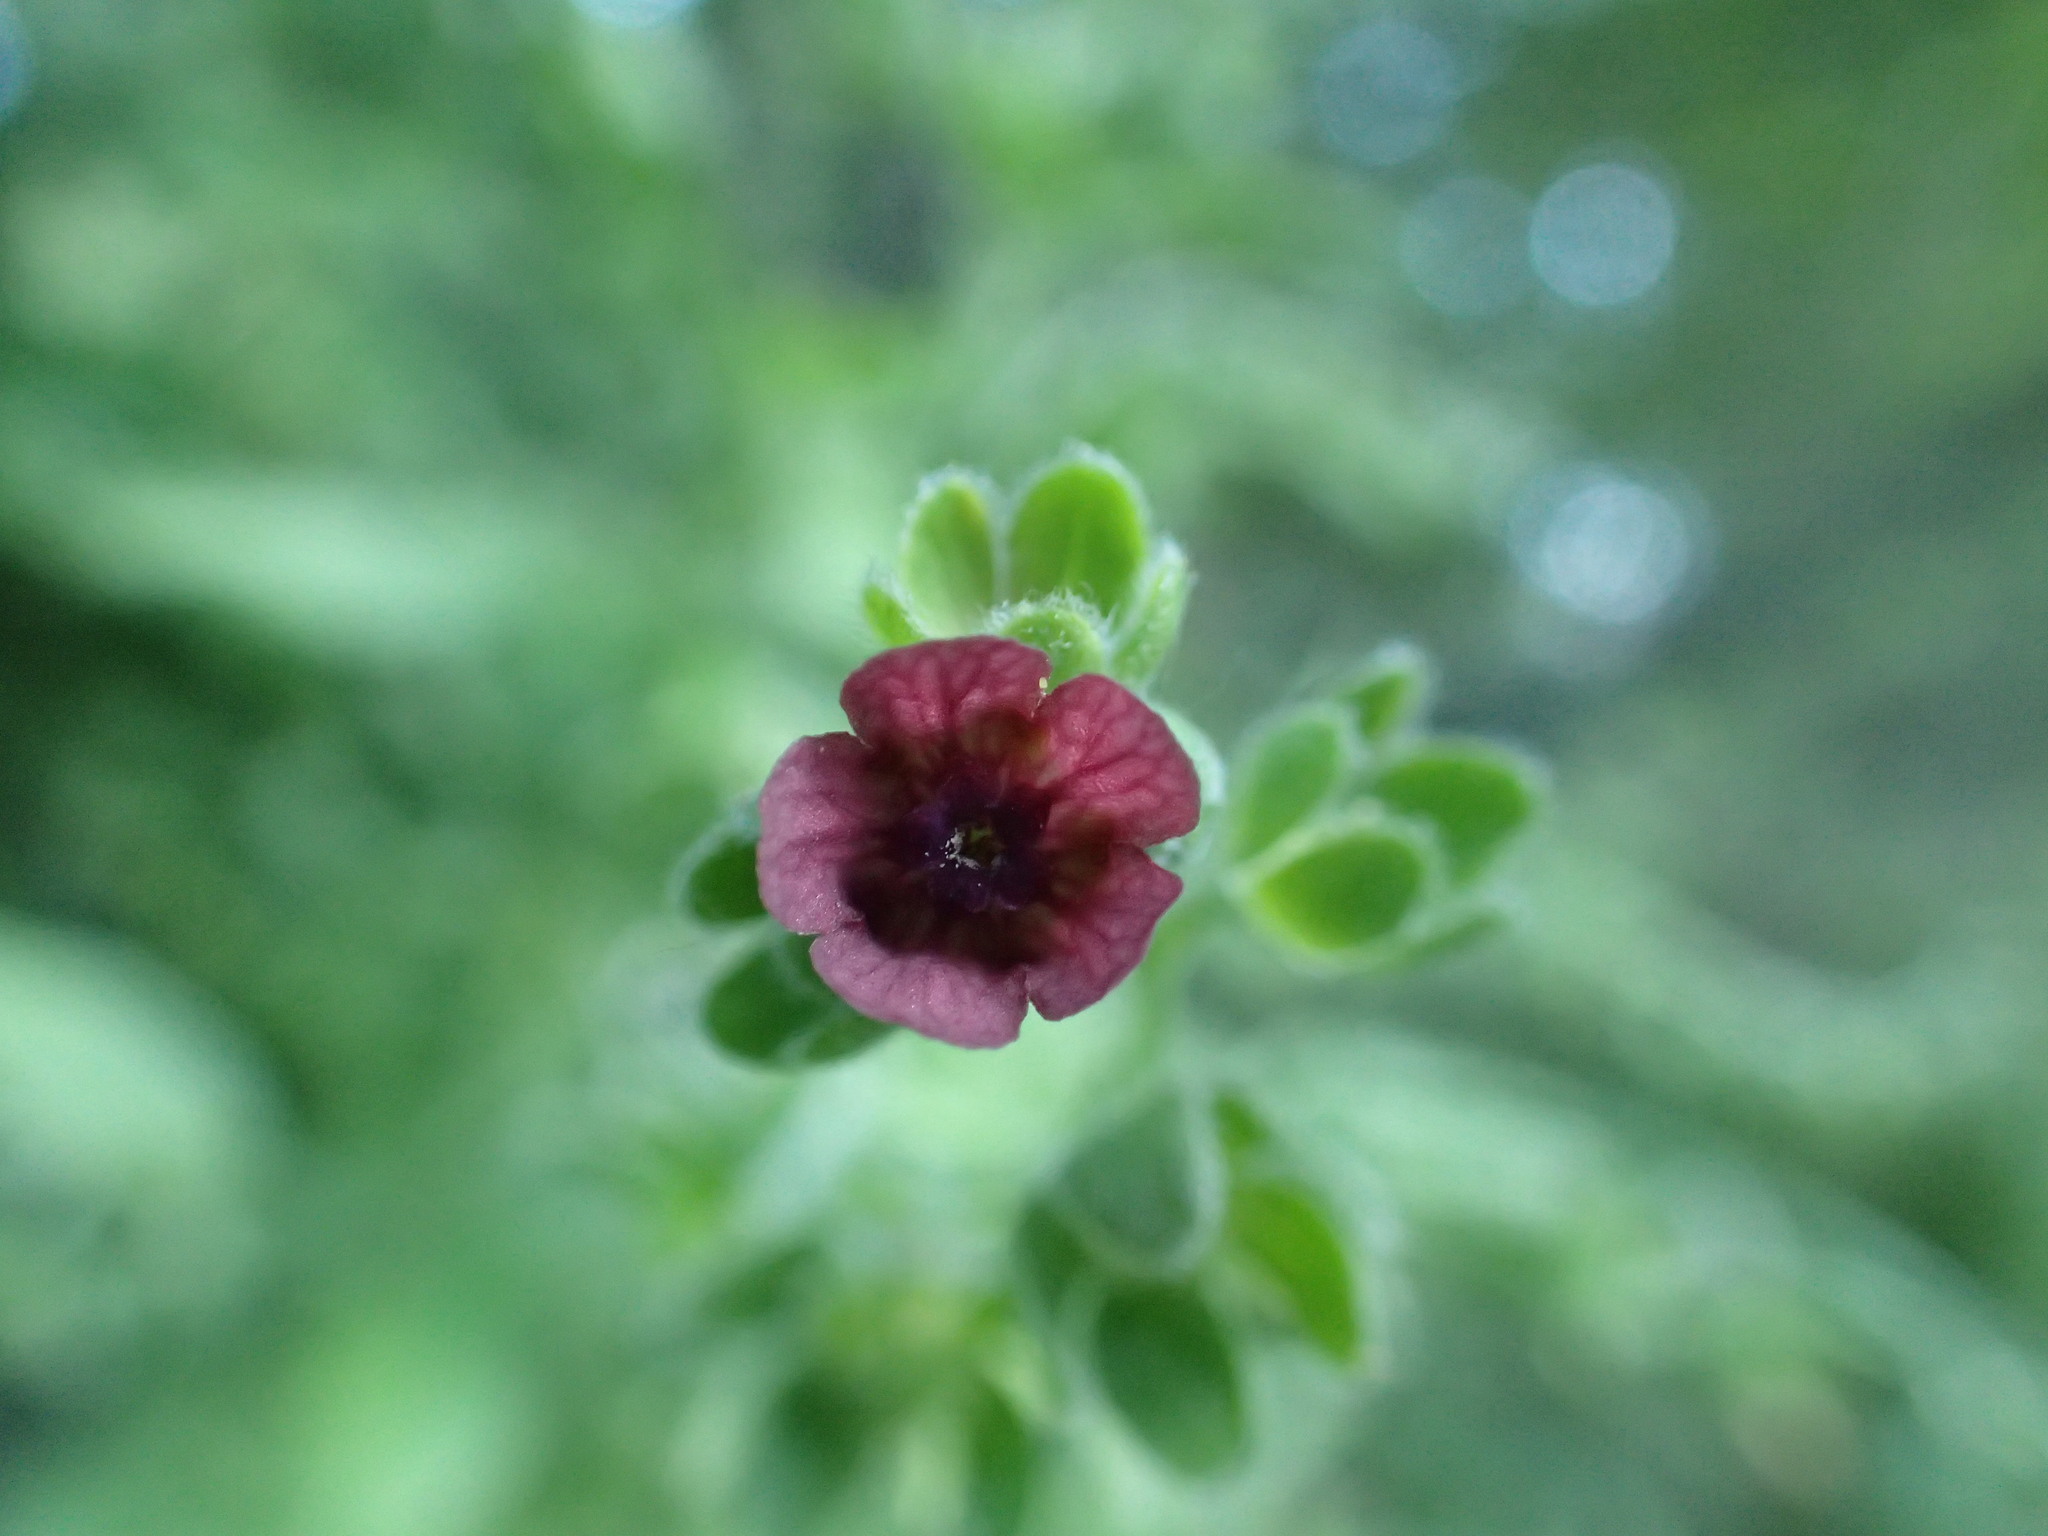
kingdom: Plantae
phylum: Tracheophyta
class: Magnoliopsida
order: Boraginales
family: Boraginaceae
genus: Cynoglossum
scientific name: Cynoglossum officinale
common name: Hound's-tongue
